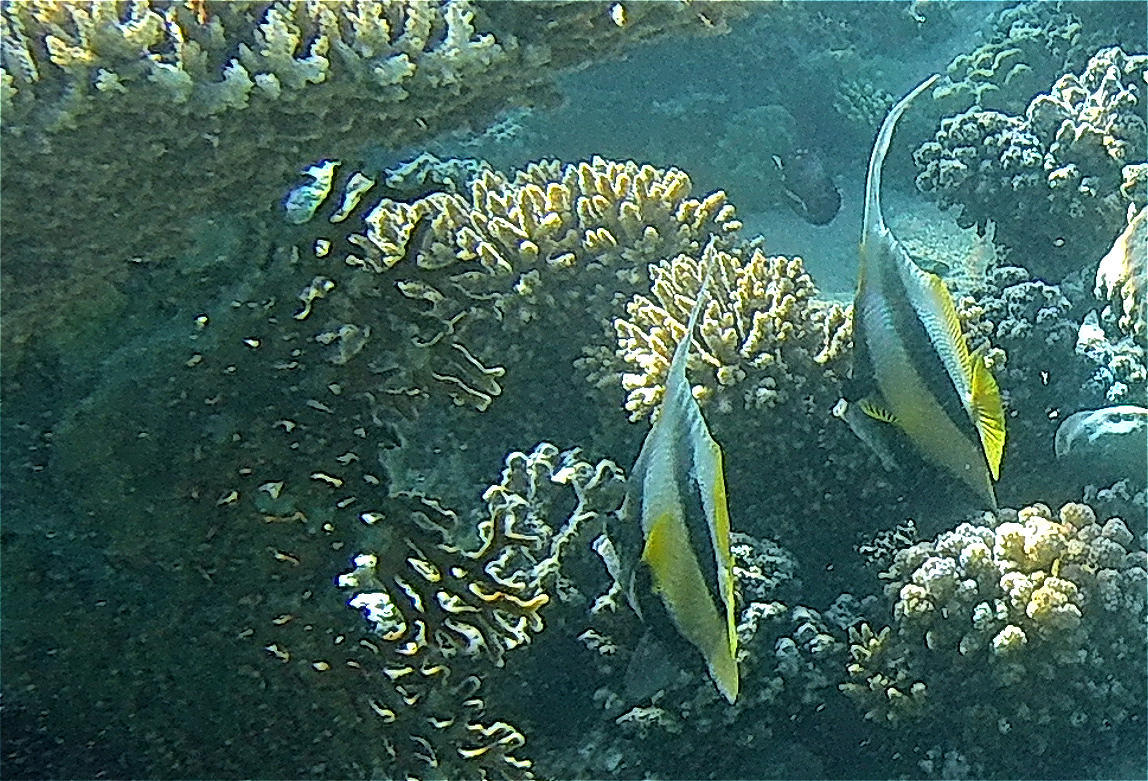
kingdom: Animalia
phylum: Chordata
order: Perciformes
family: Chaetodontidae
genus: Heniochus
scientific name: Heniochus intermedius
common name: Red sea bannerfish
